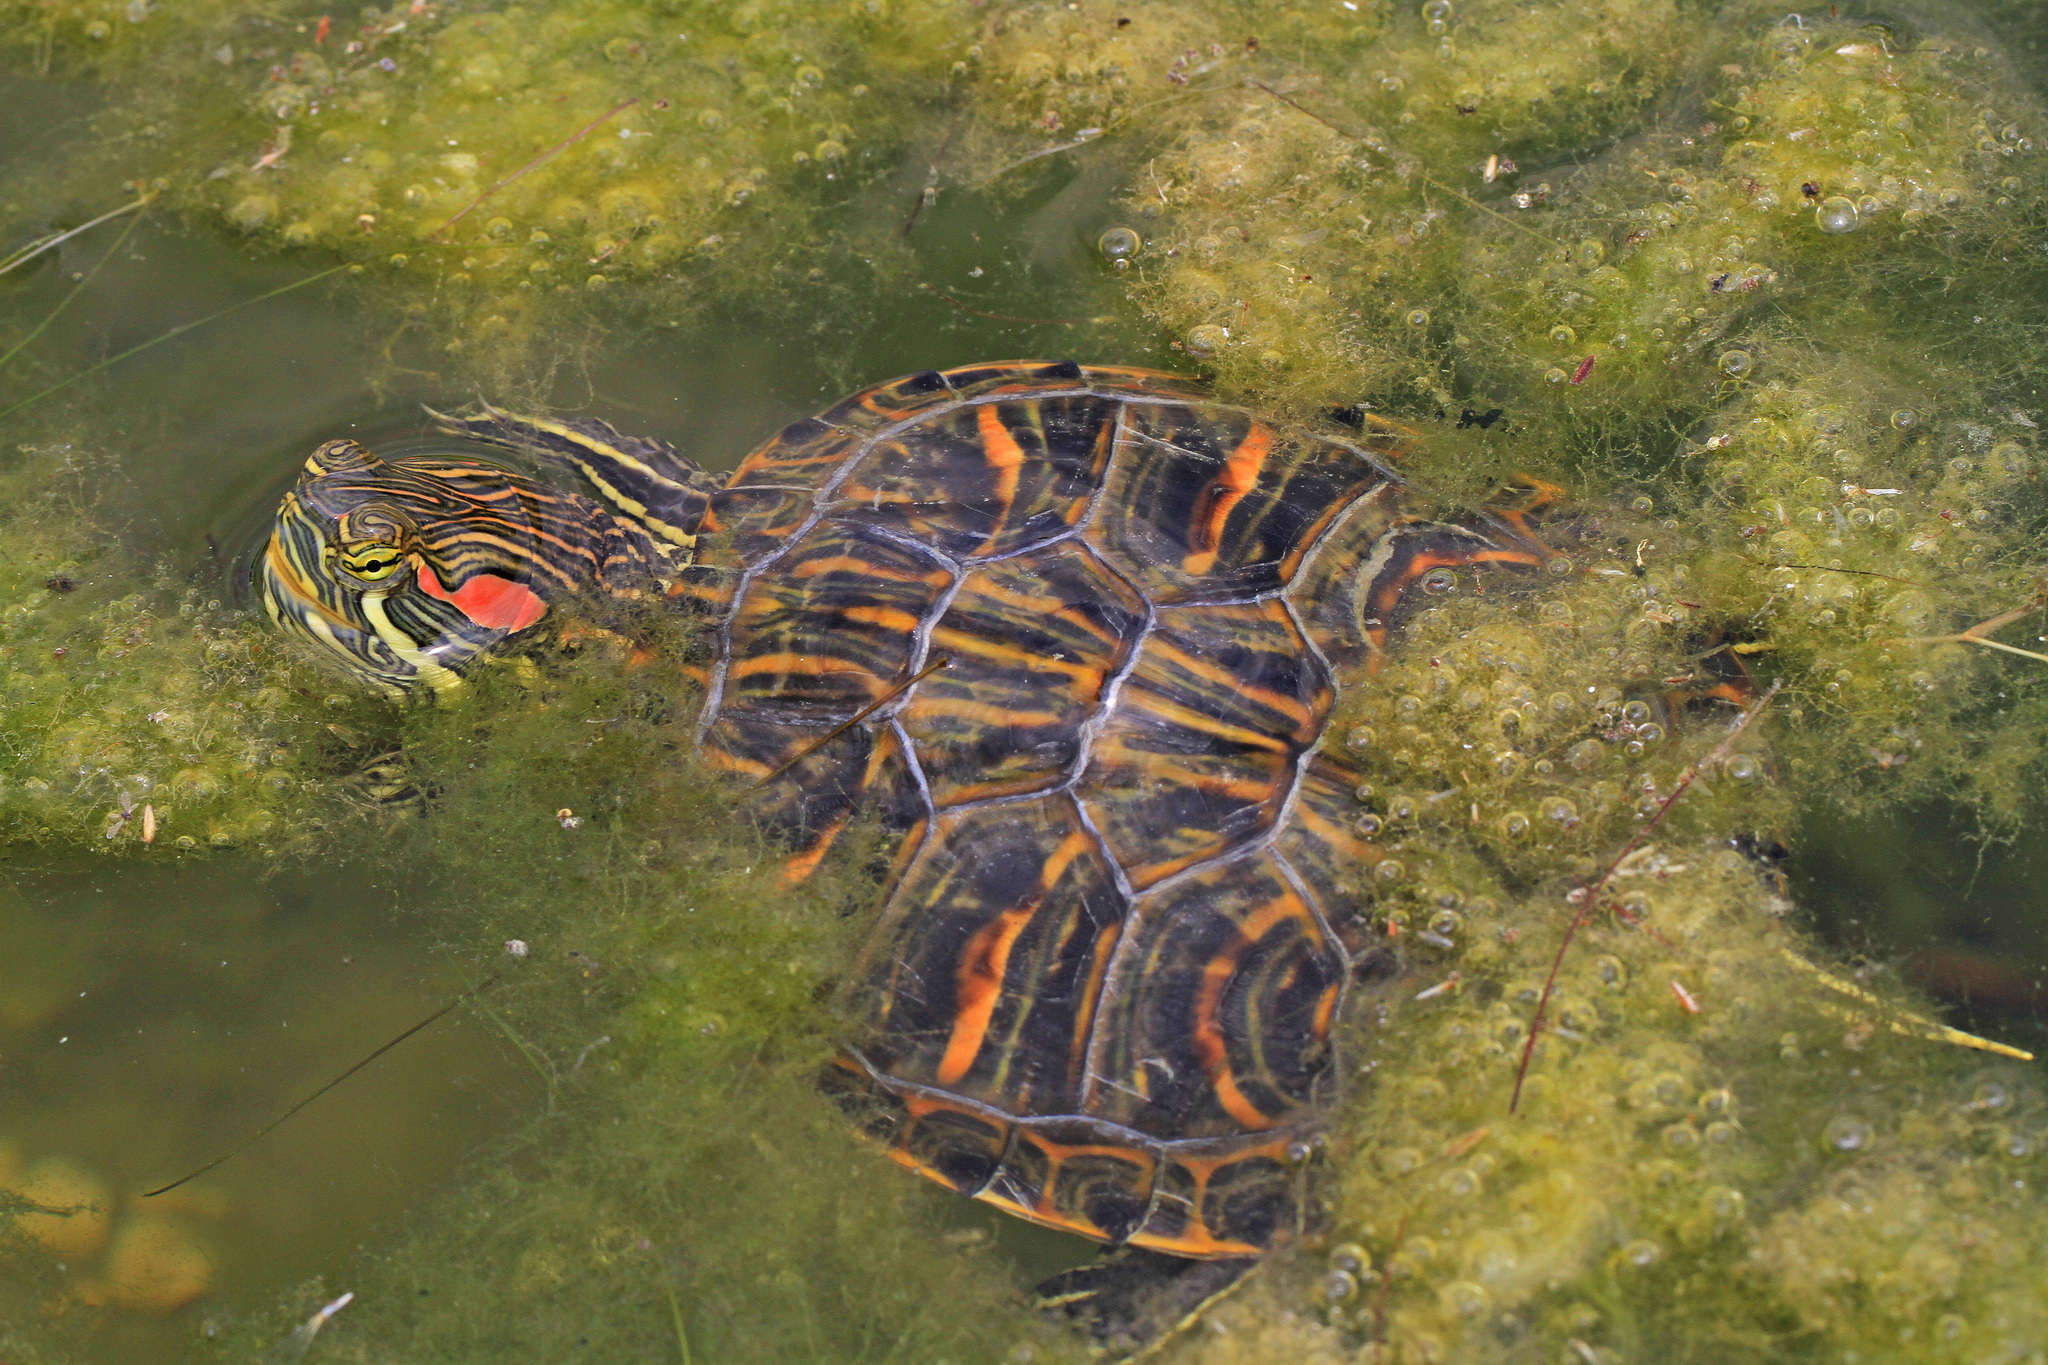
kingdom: Animalia
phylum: Chordata
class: Testudines
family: Emydidae
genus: Trachemys
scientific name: Trachemys scripta
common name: Slider
